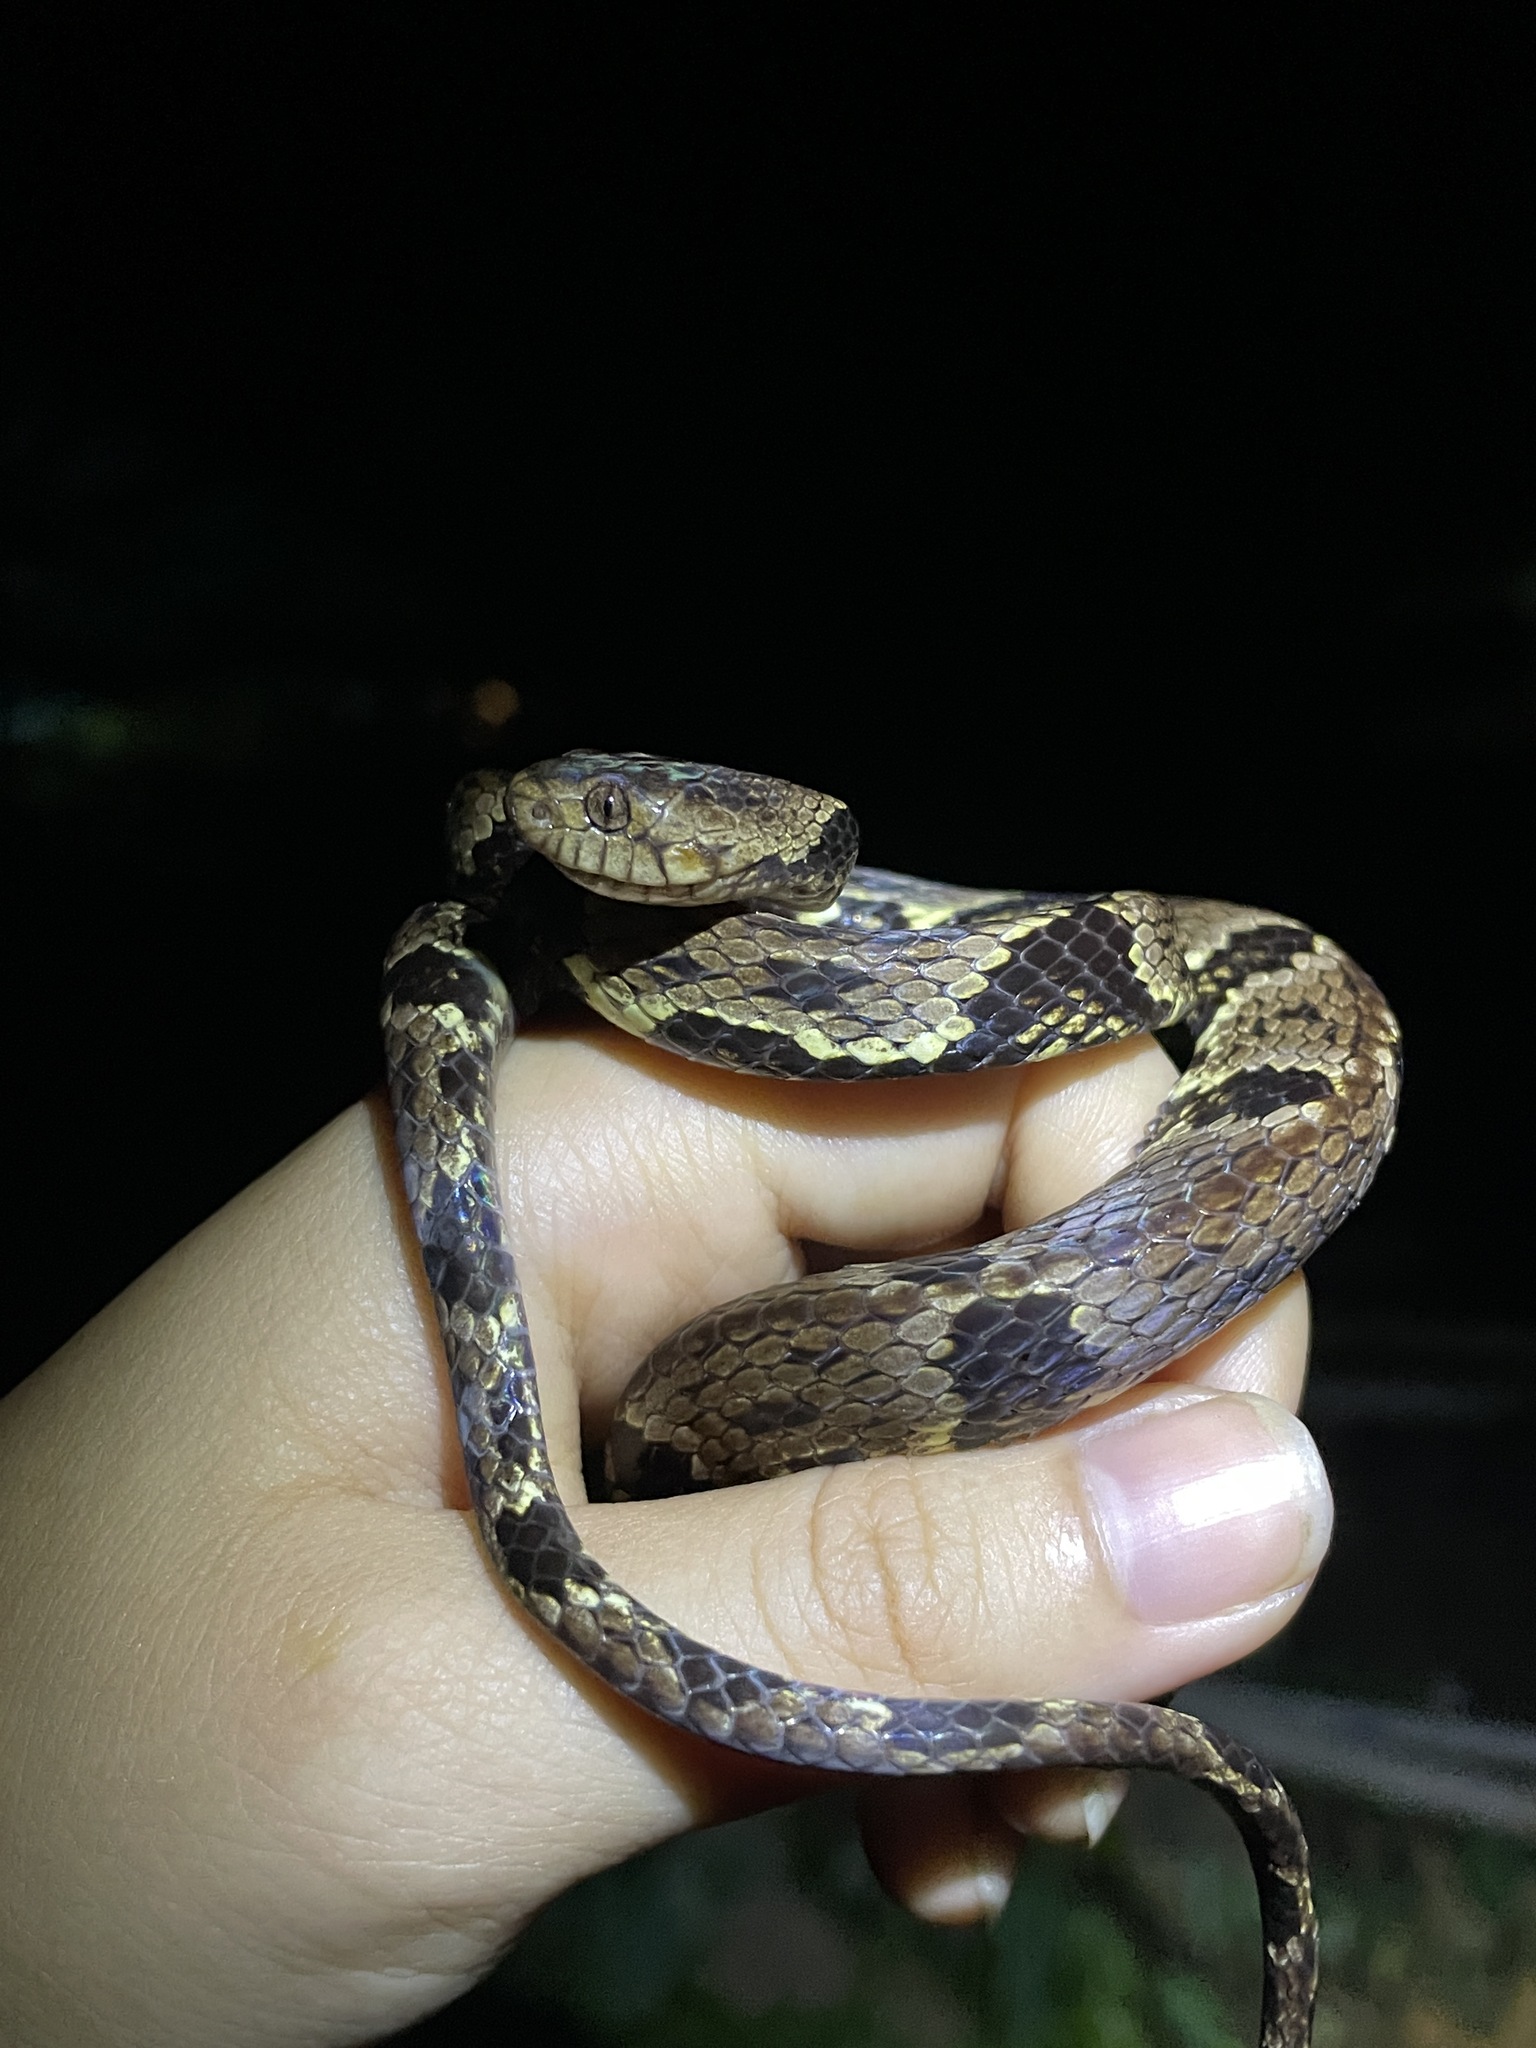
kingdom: Animalia
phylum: Chordata
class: Squamata
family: Colubridae
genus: Dipsas
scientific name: Dipsas trinitatis
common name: Trinidad snail-eater
